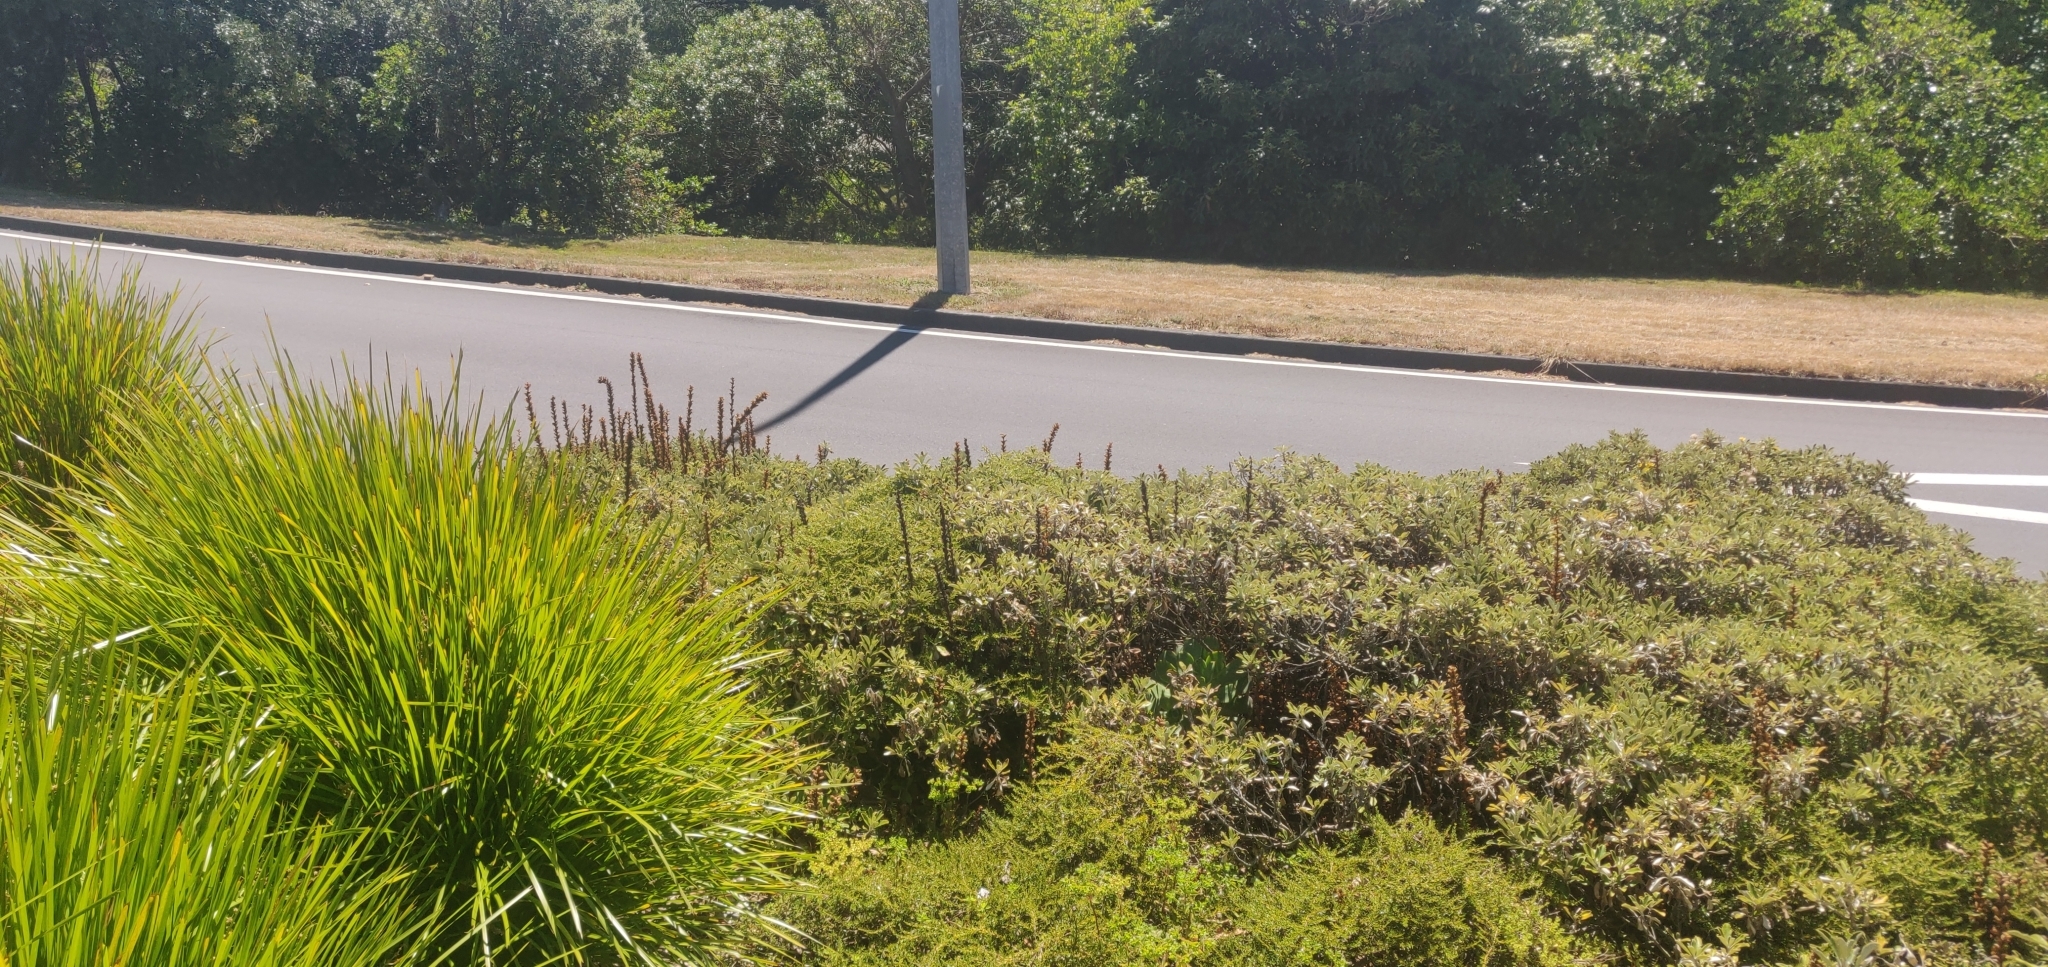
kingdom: Plantae
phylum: Tracheophyta
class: Magnoliopsida
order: Lamiales
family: Orobanchaceae
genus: Orobanche
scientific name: Orobanche minor
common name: Common broomrape
